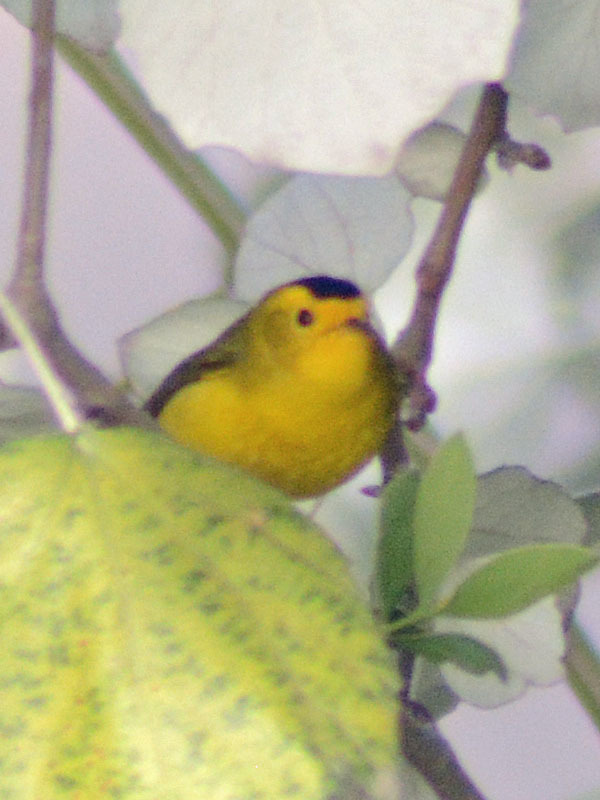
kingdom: Animalia
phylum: Chordata
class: Aves
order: Passeriformes
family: Parulidae
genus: Cardellina
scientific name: Cardellina pusilla
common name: Wilson's warbler
